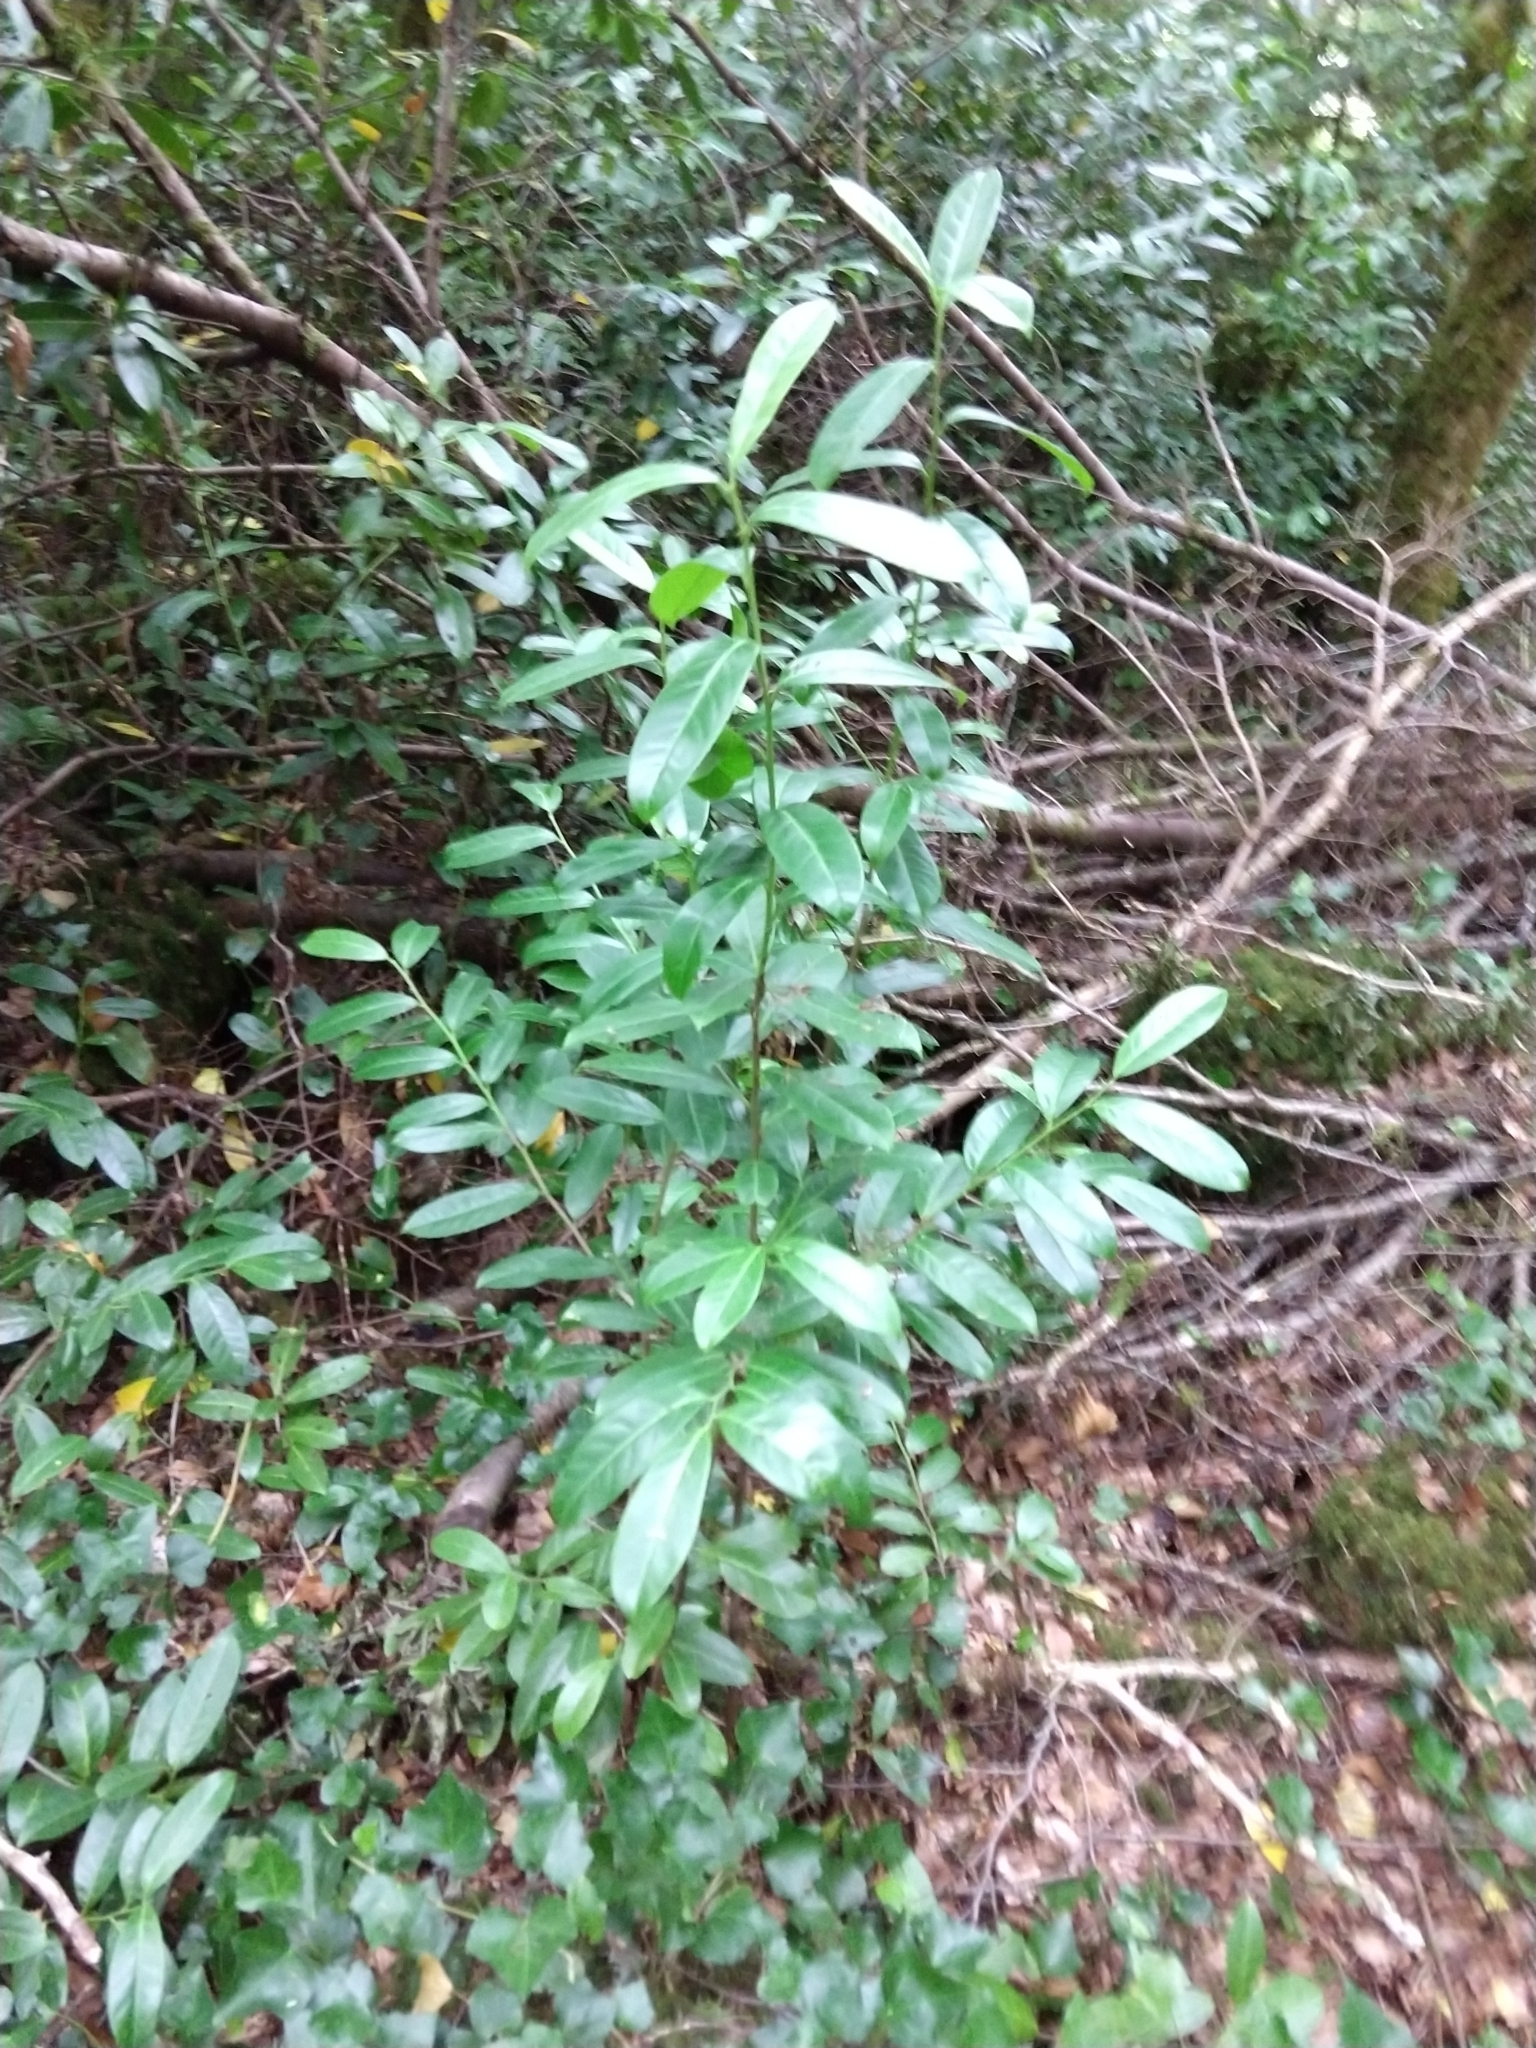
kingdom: Plantae
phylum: Tracheophyta
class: Magnoliopsida
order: Rosales
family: Rosaceae
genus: Prunus
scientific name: Prunus laurocerasus
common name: Cherry laurel
